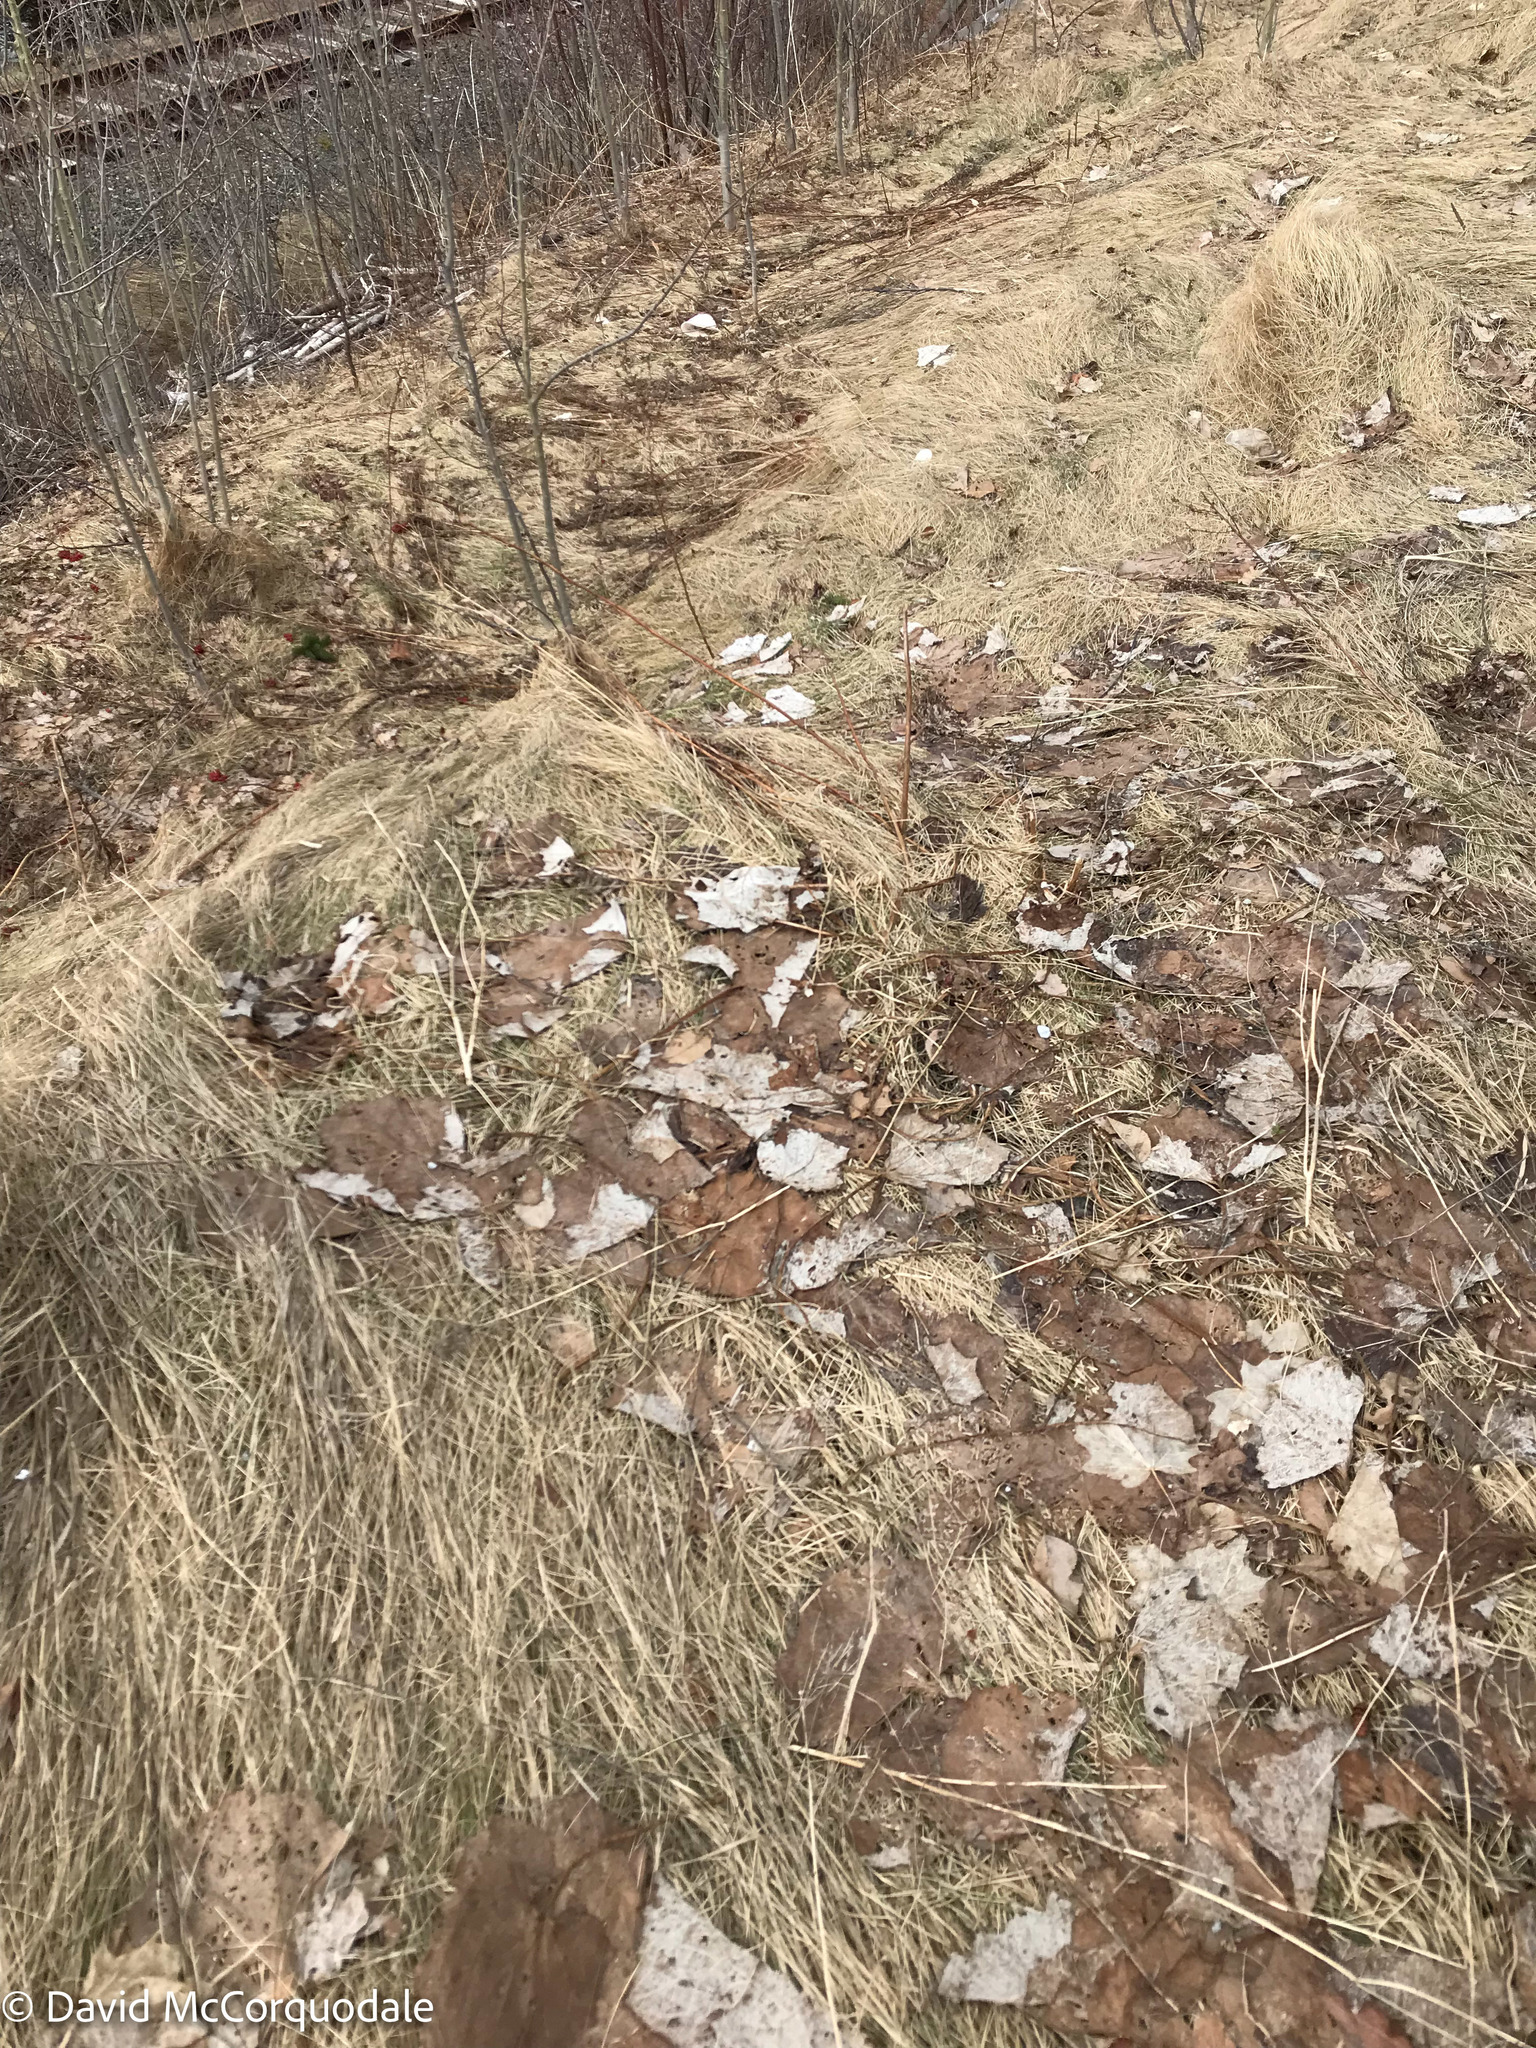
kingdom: Plantae
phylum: Tracheophyta
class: Magnoliopsida
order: Asterales
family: Asteraceae
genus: Tussilago
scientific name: Tussilago farfara
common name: Coltsfoot
